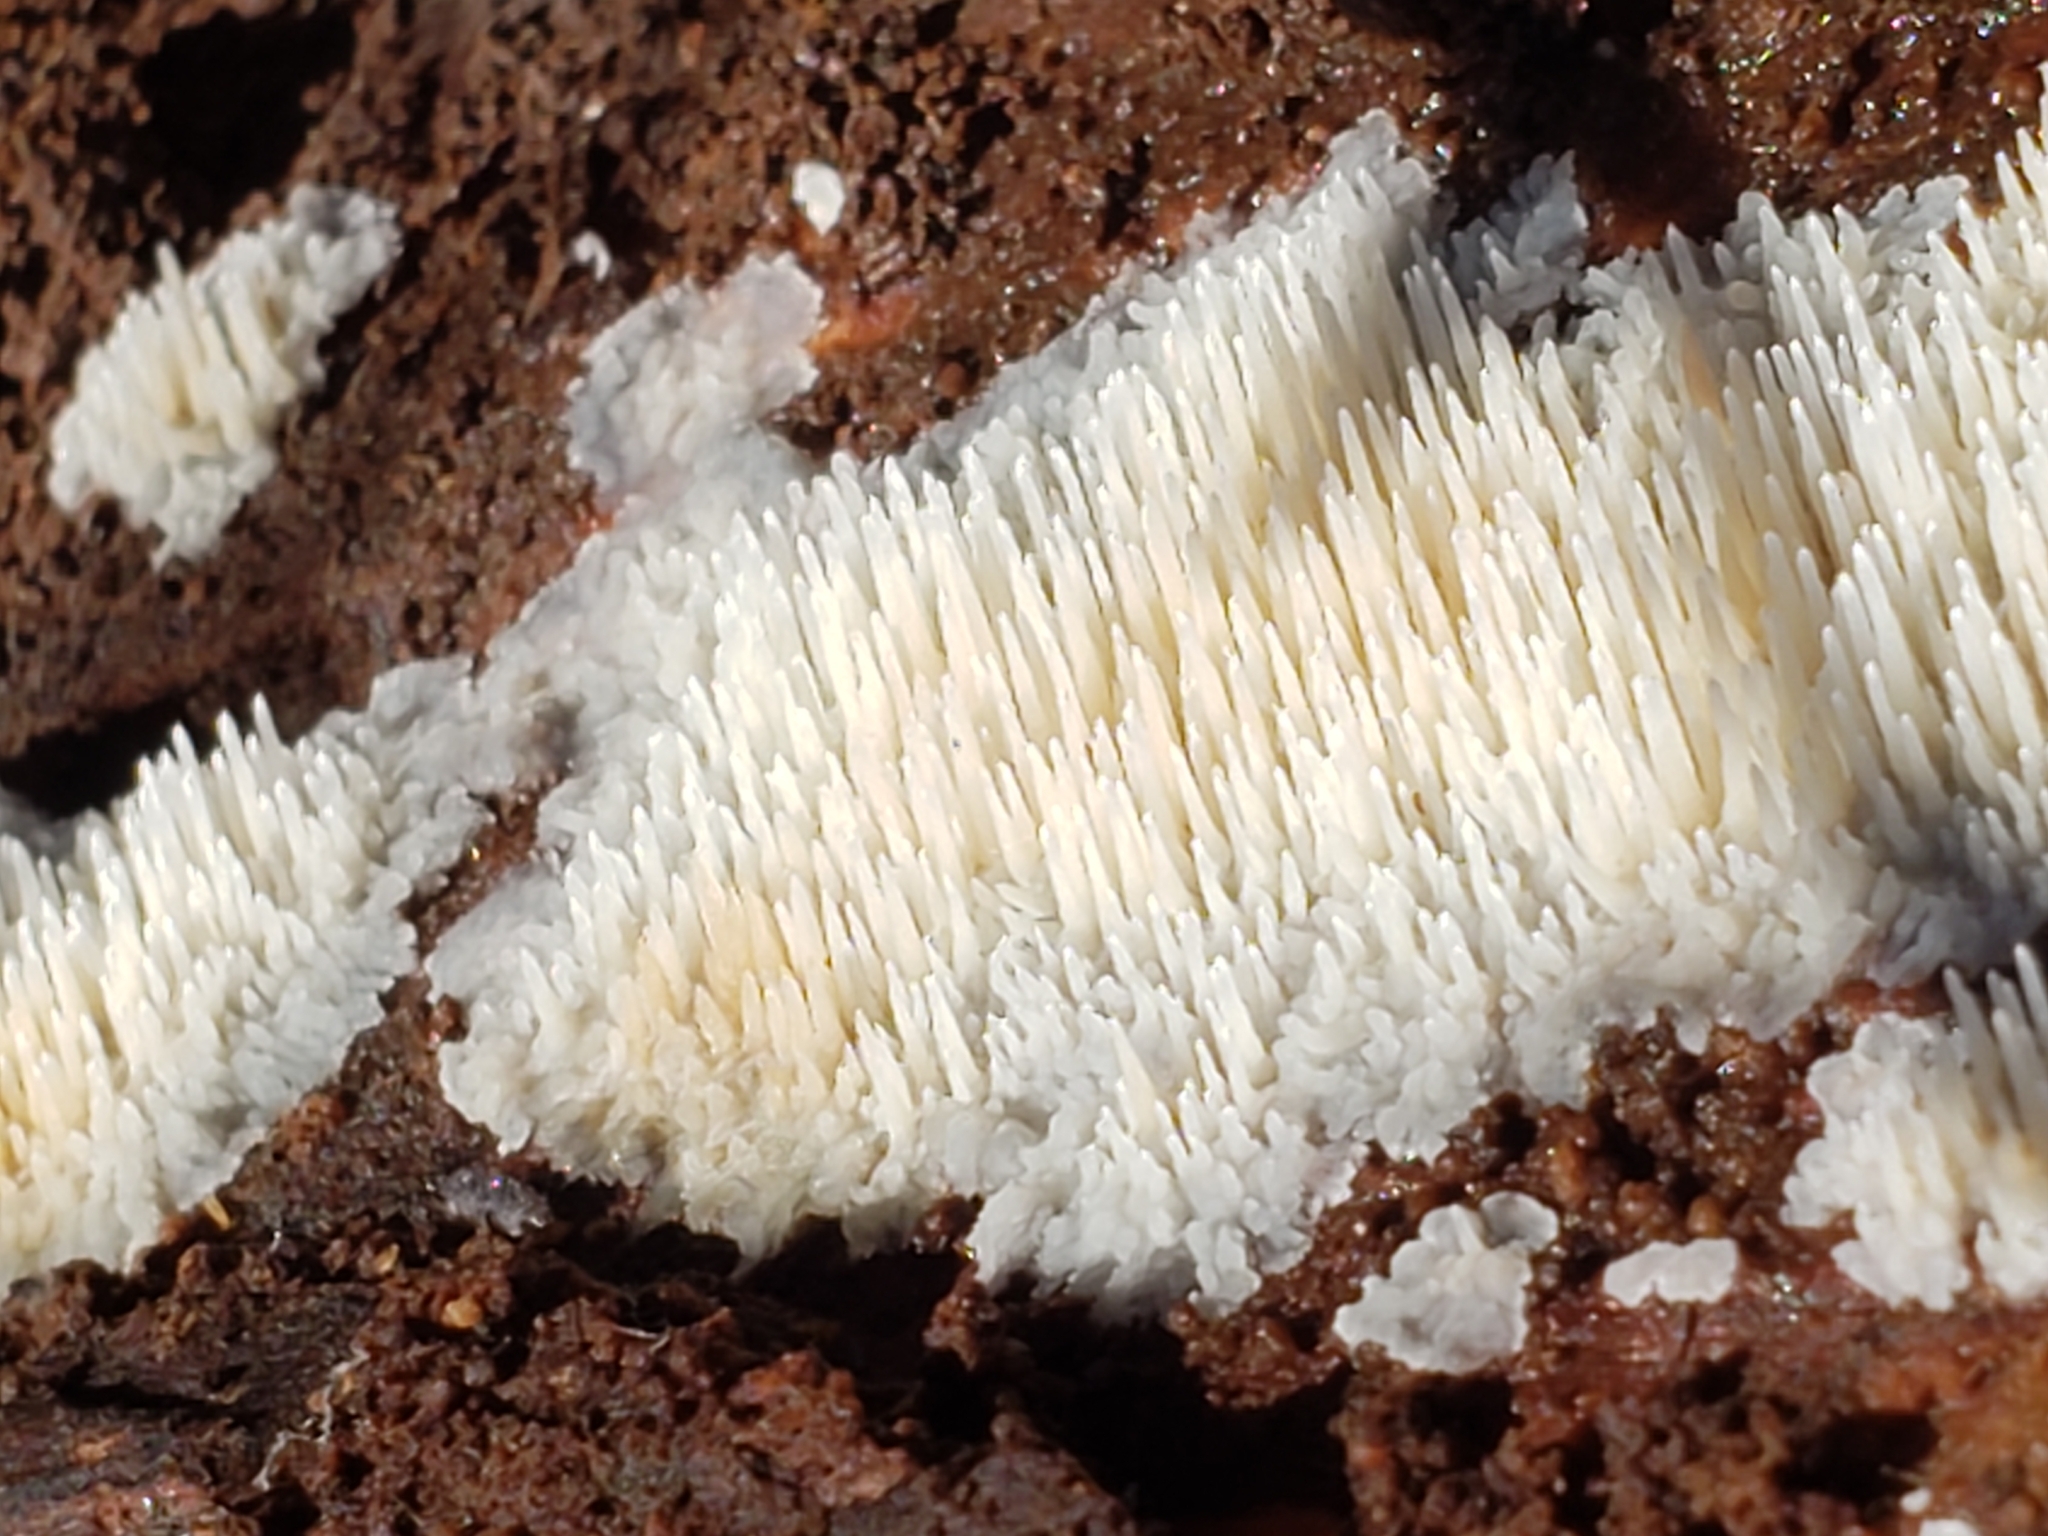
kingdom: Fungi
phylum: Basidiomycota
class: Agaricomycetes
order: Agaricales
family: Radulomycetaceae
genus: Radulomyces
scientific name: Radulomyces copelandii
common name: Asian beauty
